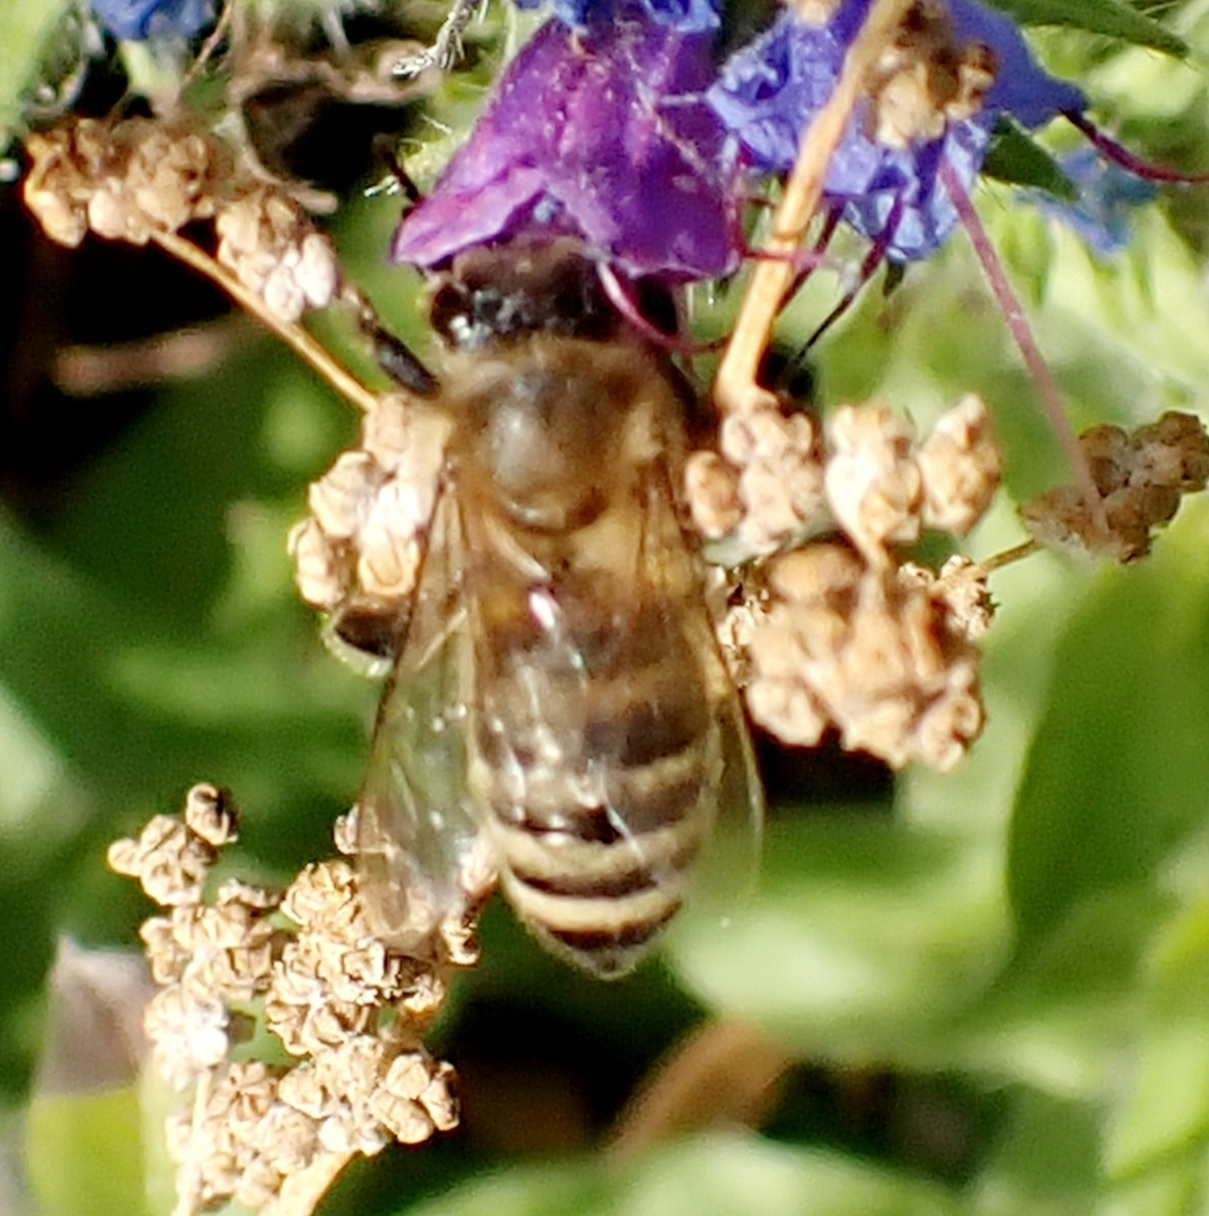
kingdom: Animalia
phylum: Arthropoda
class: Insecta
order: Hymenoptera
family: Apidae
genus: Apis
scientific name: Apis mellifera
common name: Honey bee
